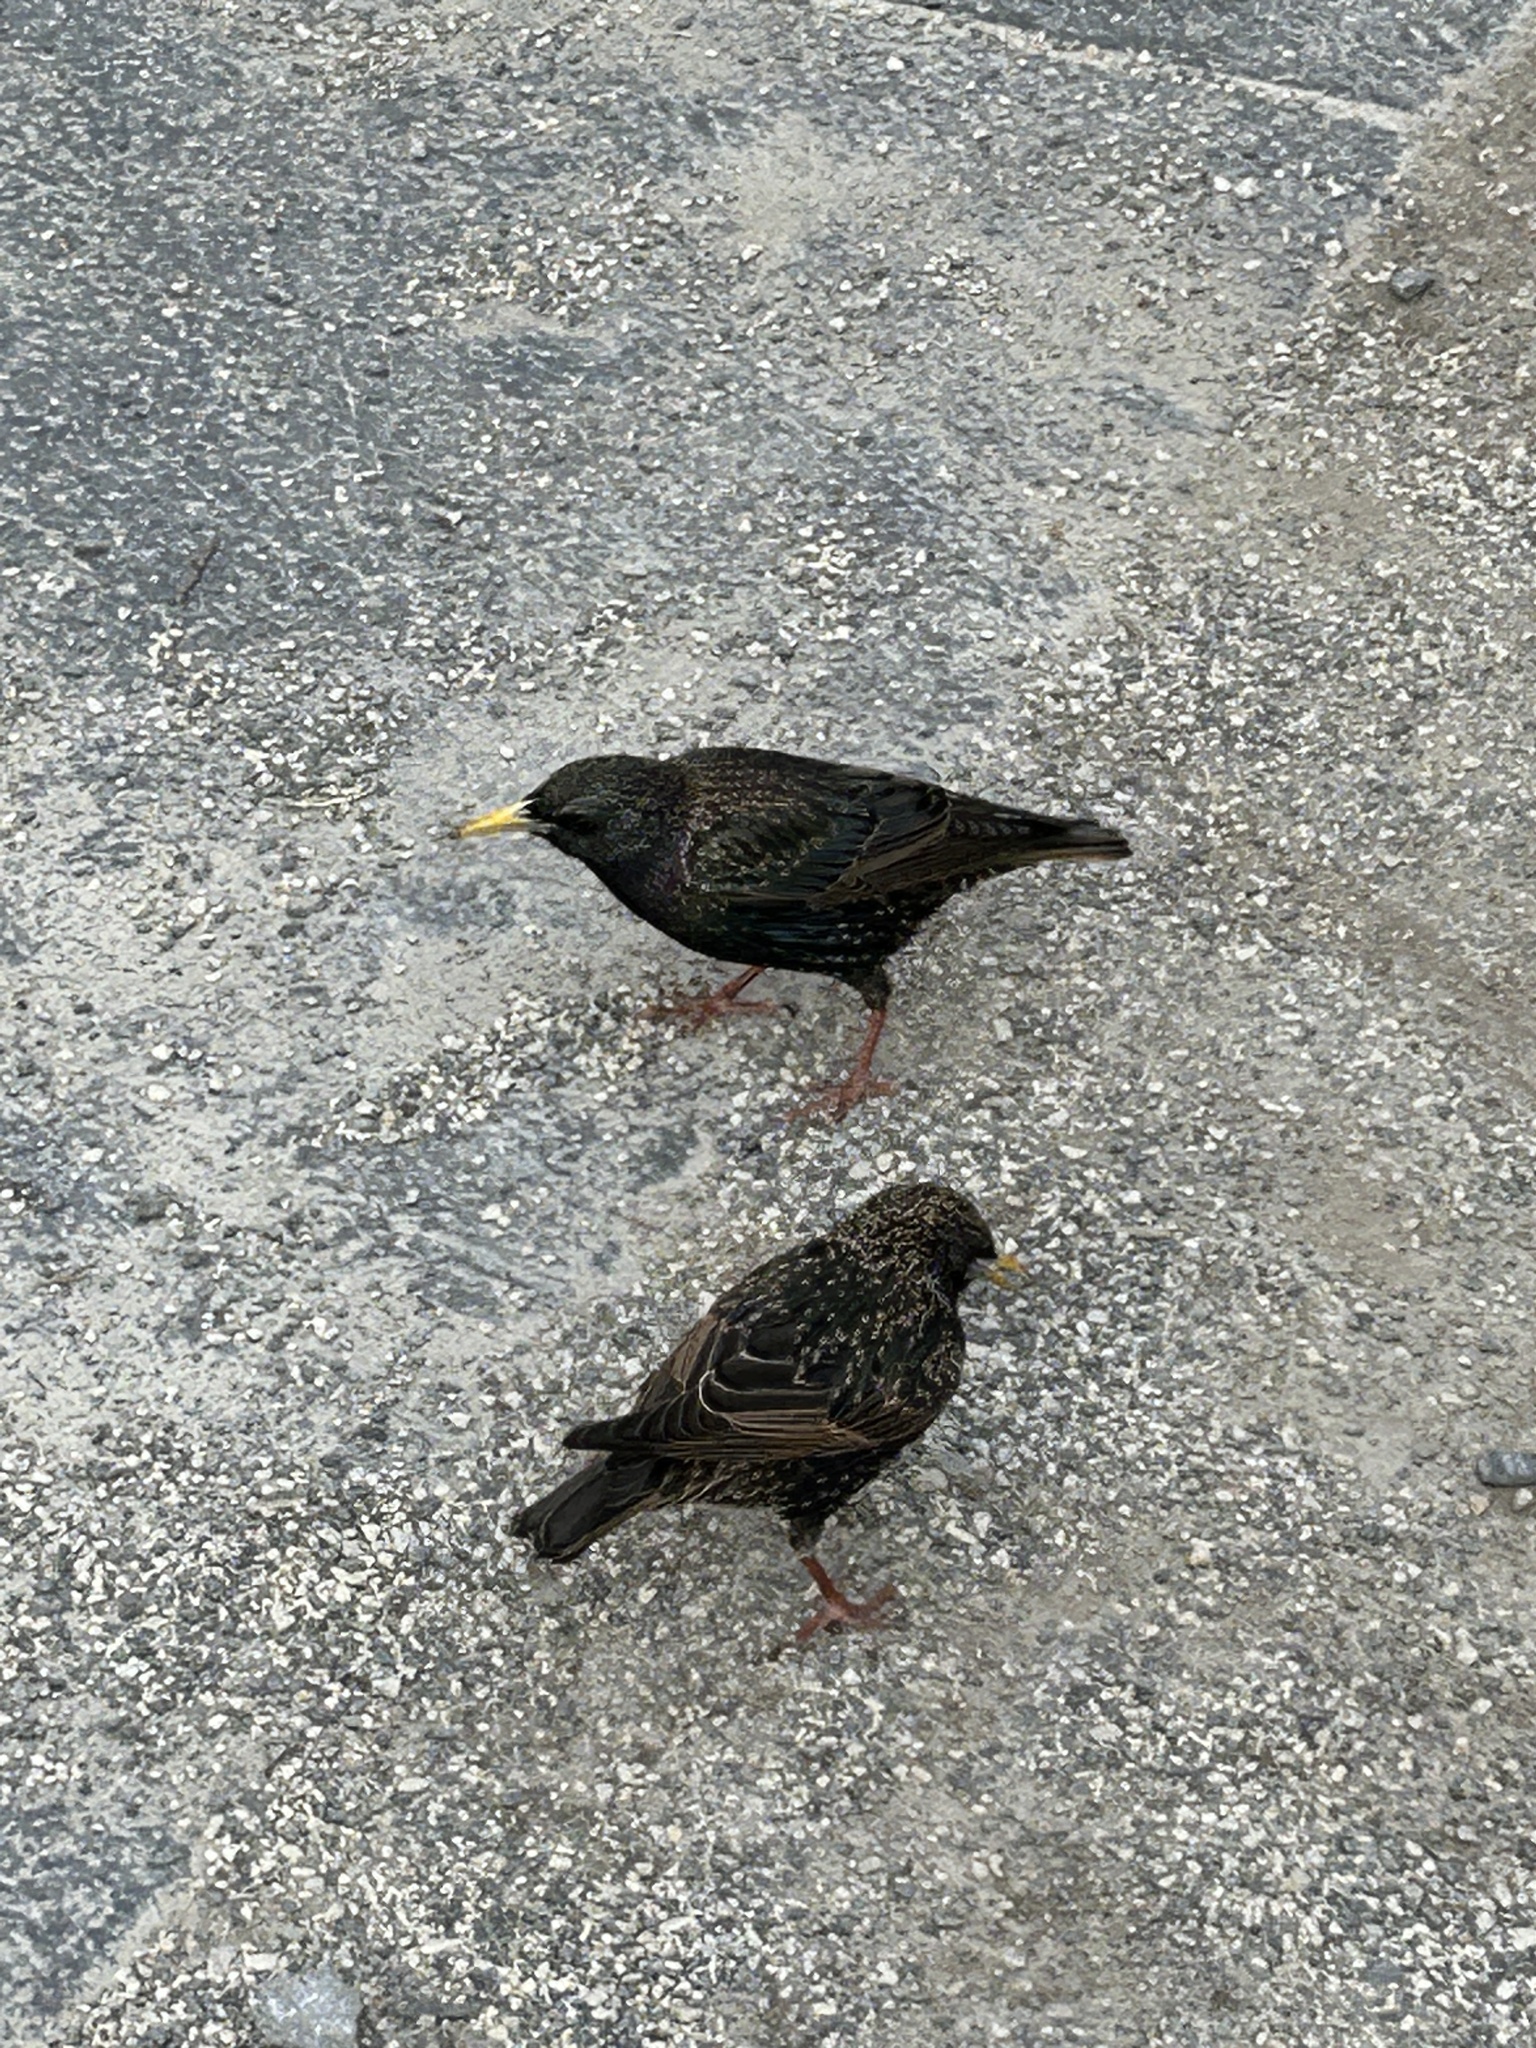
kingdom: Animalia
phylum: Chordata
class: Aves
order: Passeriformes
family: Sturnidae
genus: Sturnus
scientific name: Sturnus vulgaris
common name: Common starling
